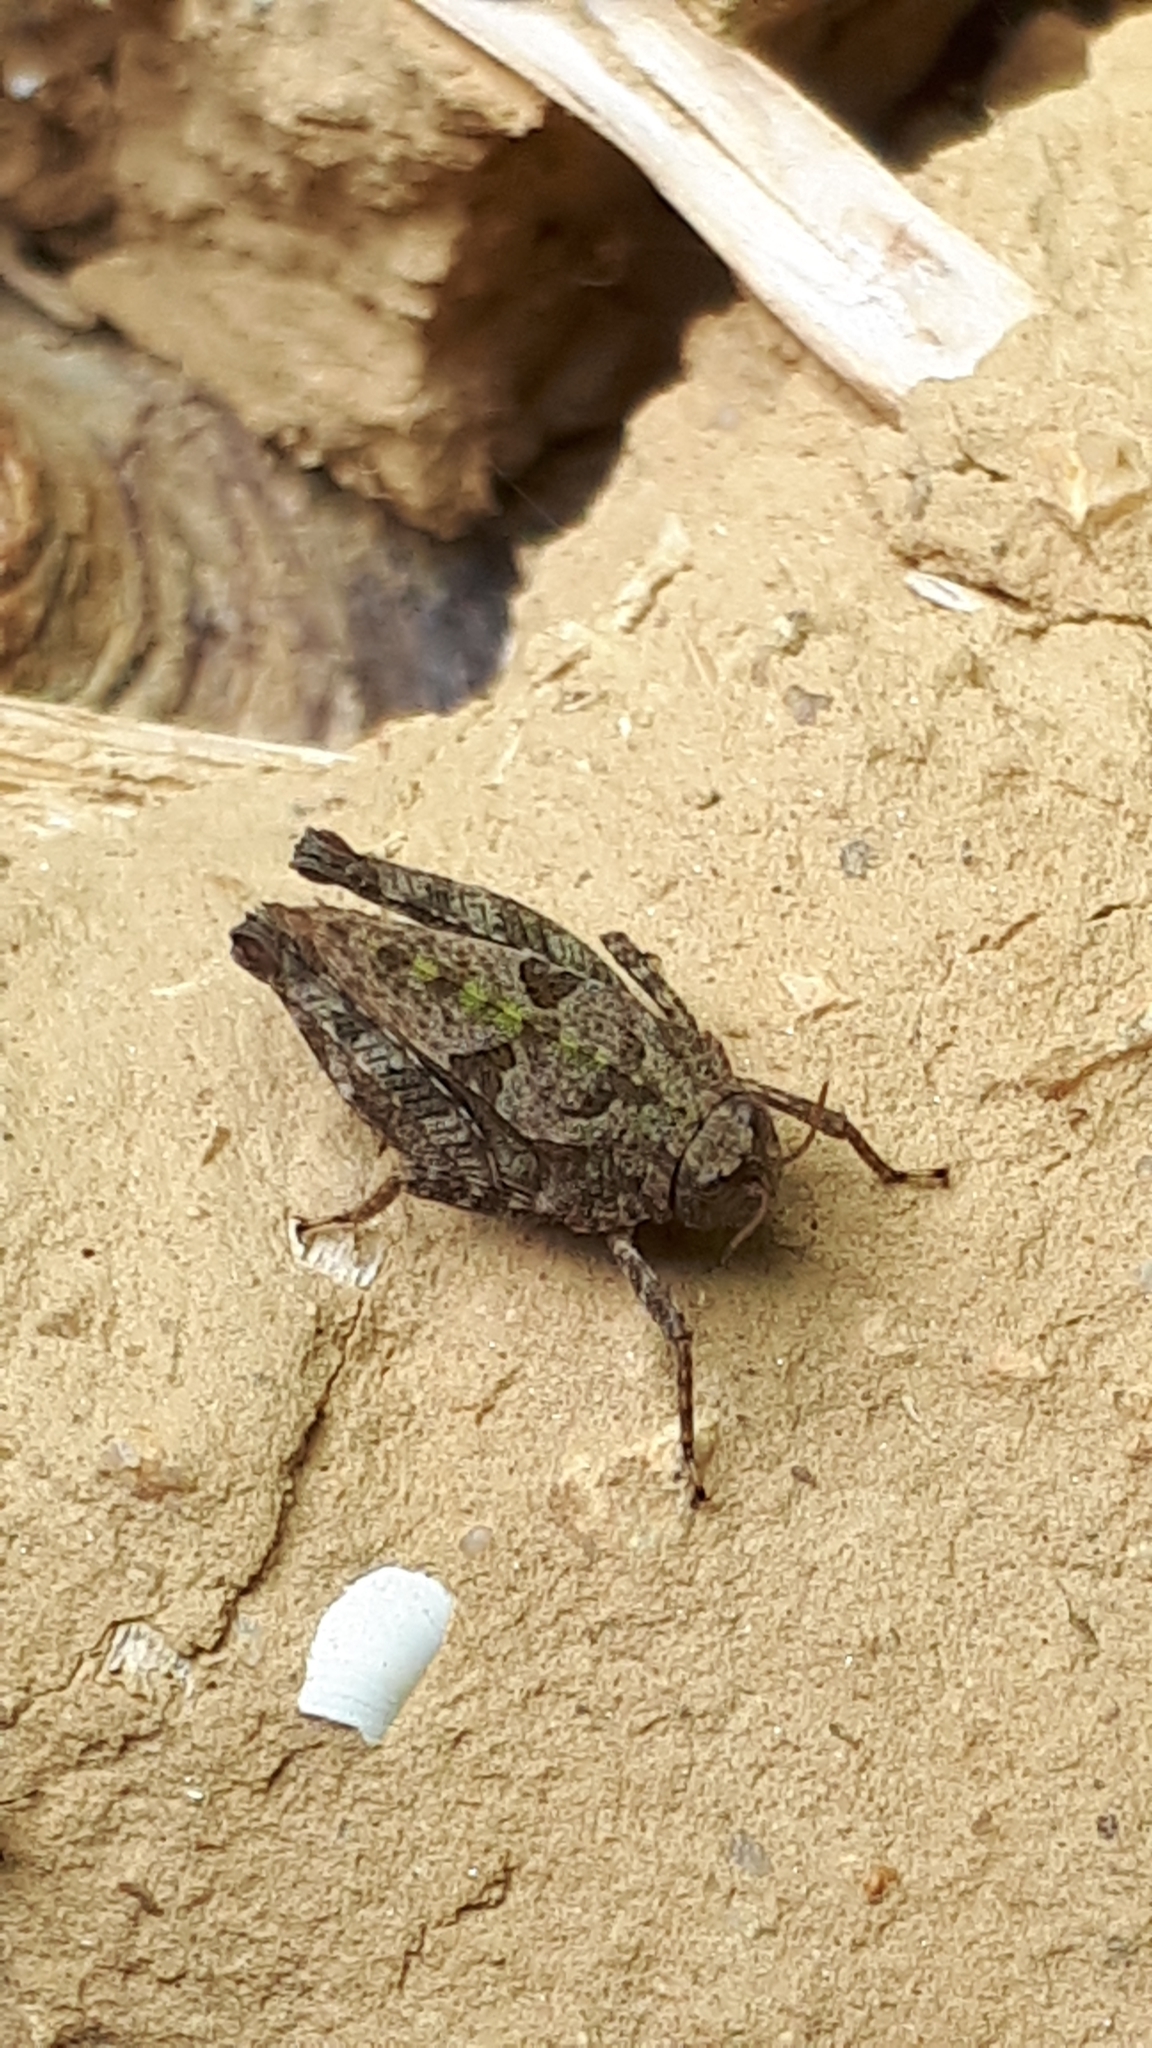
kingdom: Animalia
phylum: Arthropoda
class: Insecta
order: Orthoptera
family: Tetrigidae
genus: Tetrix
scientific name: Tetrix tenuicornis
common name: Long-horned groundhopper
